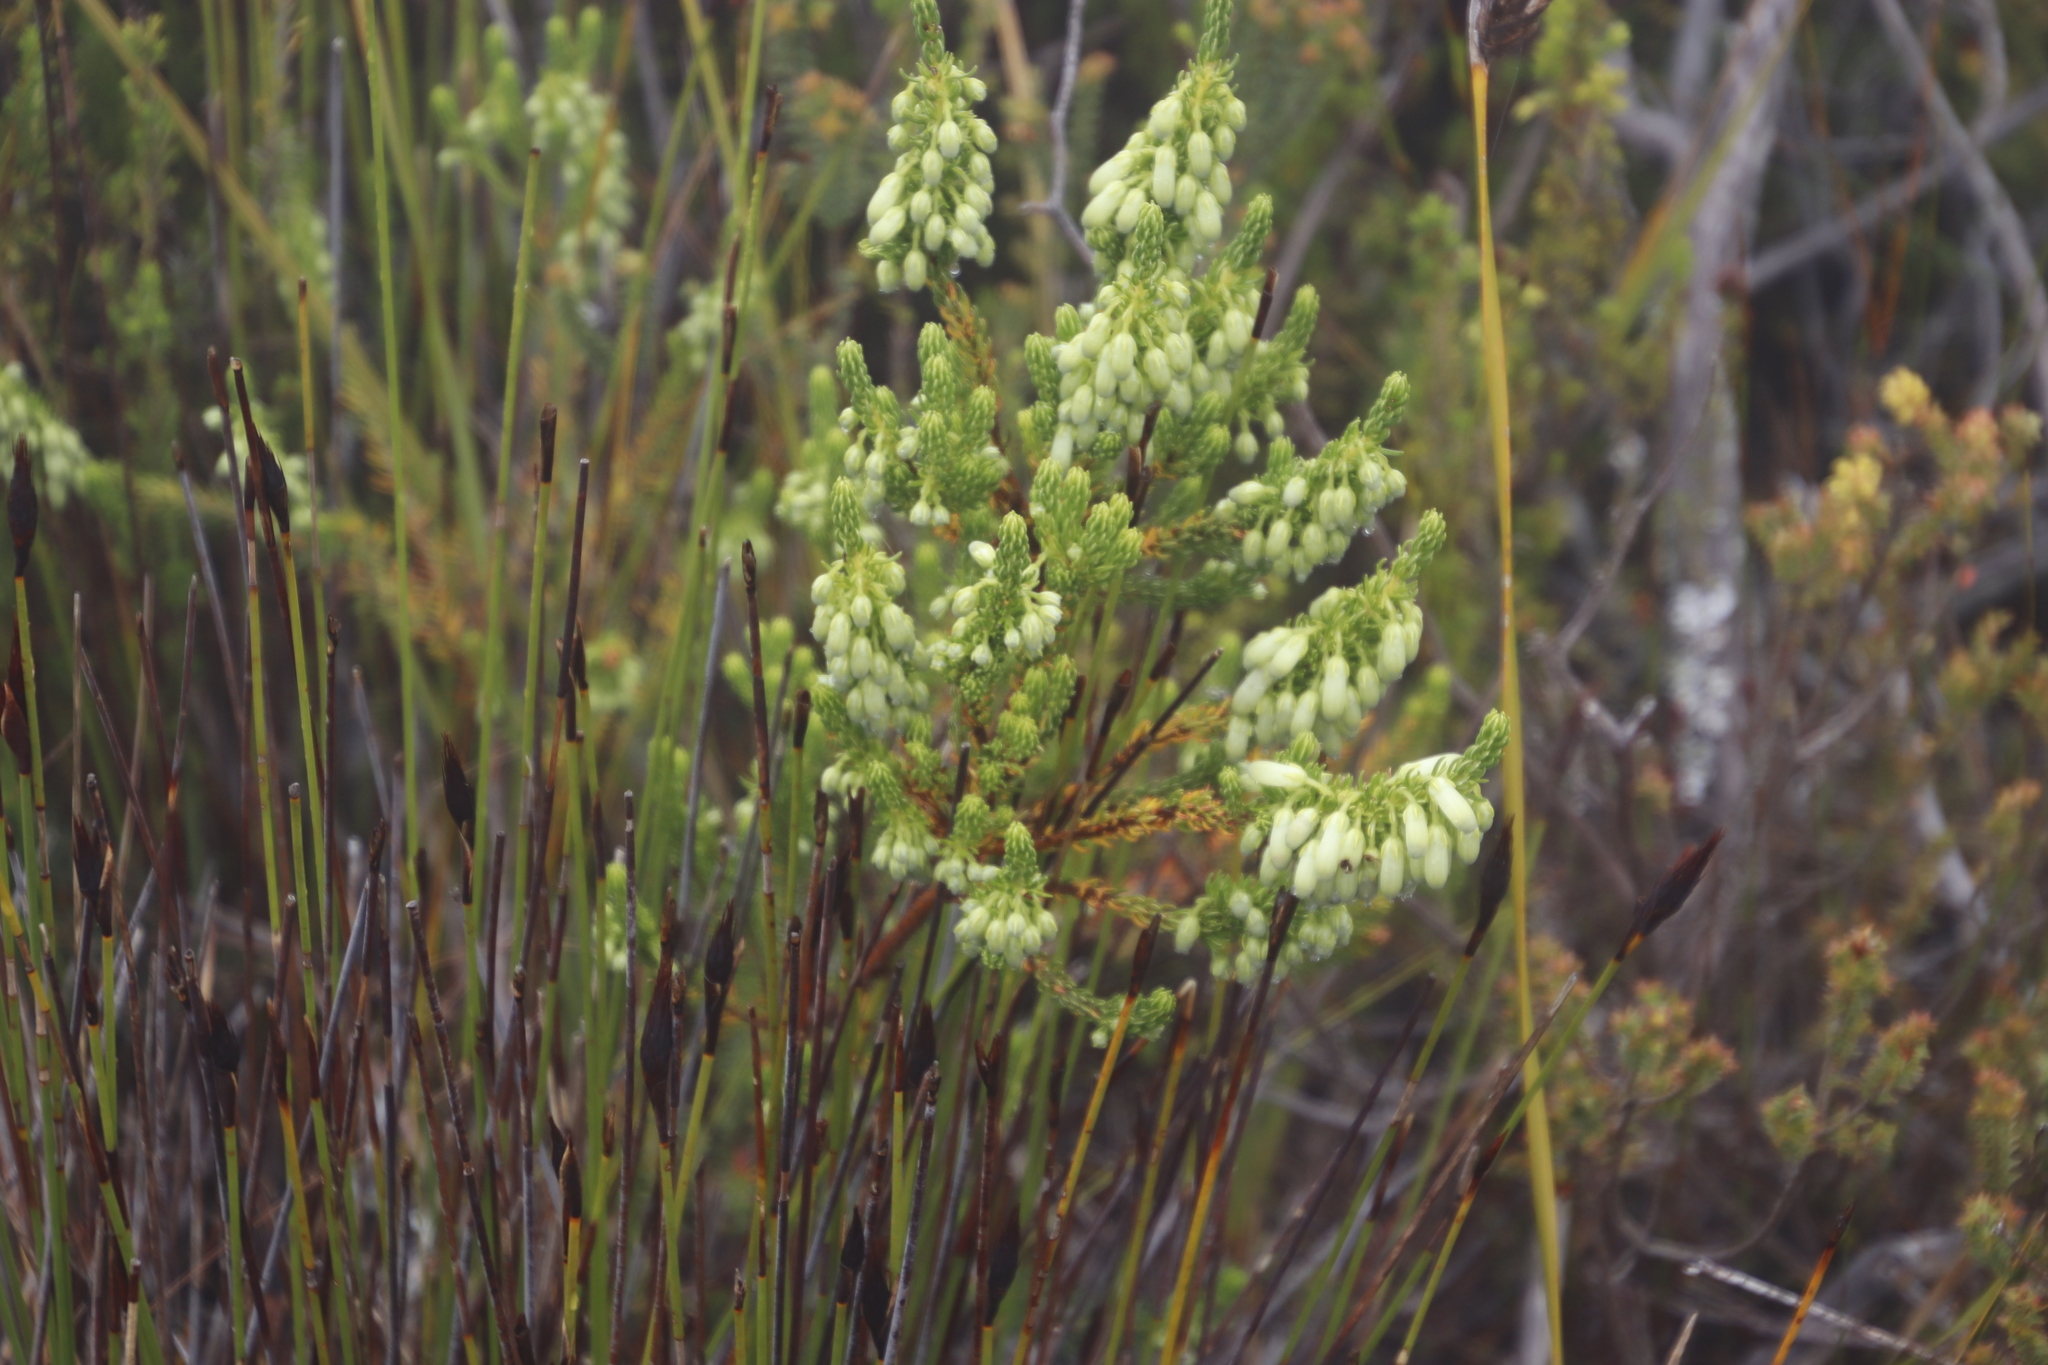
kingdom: Plantae
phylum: Tracheophyta
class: Magnoliopsida
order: Ericales
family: Ericaceae
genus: Erica
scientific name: Erica mammosa
